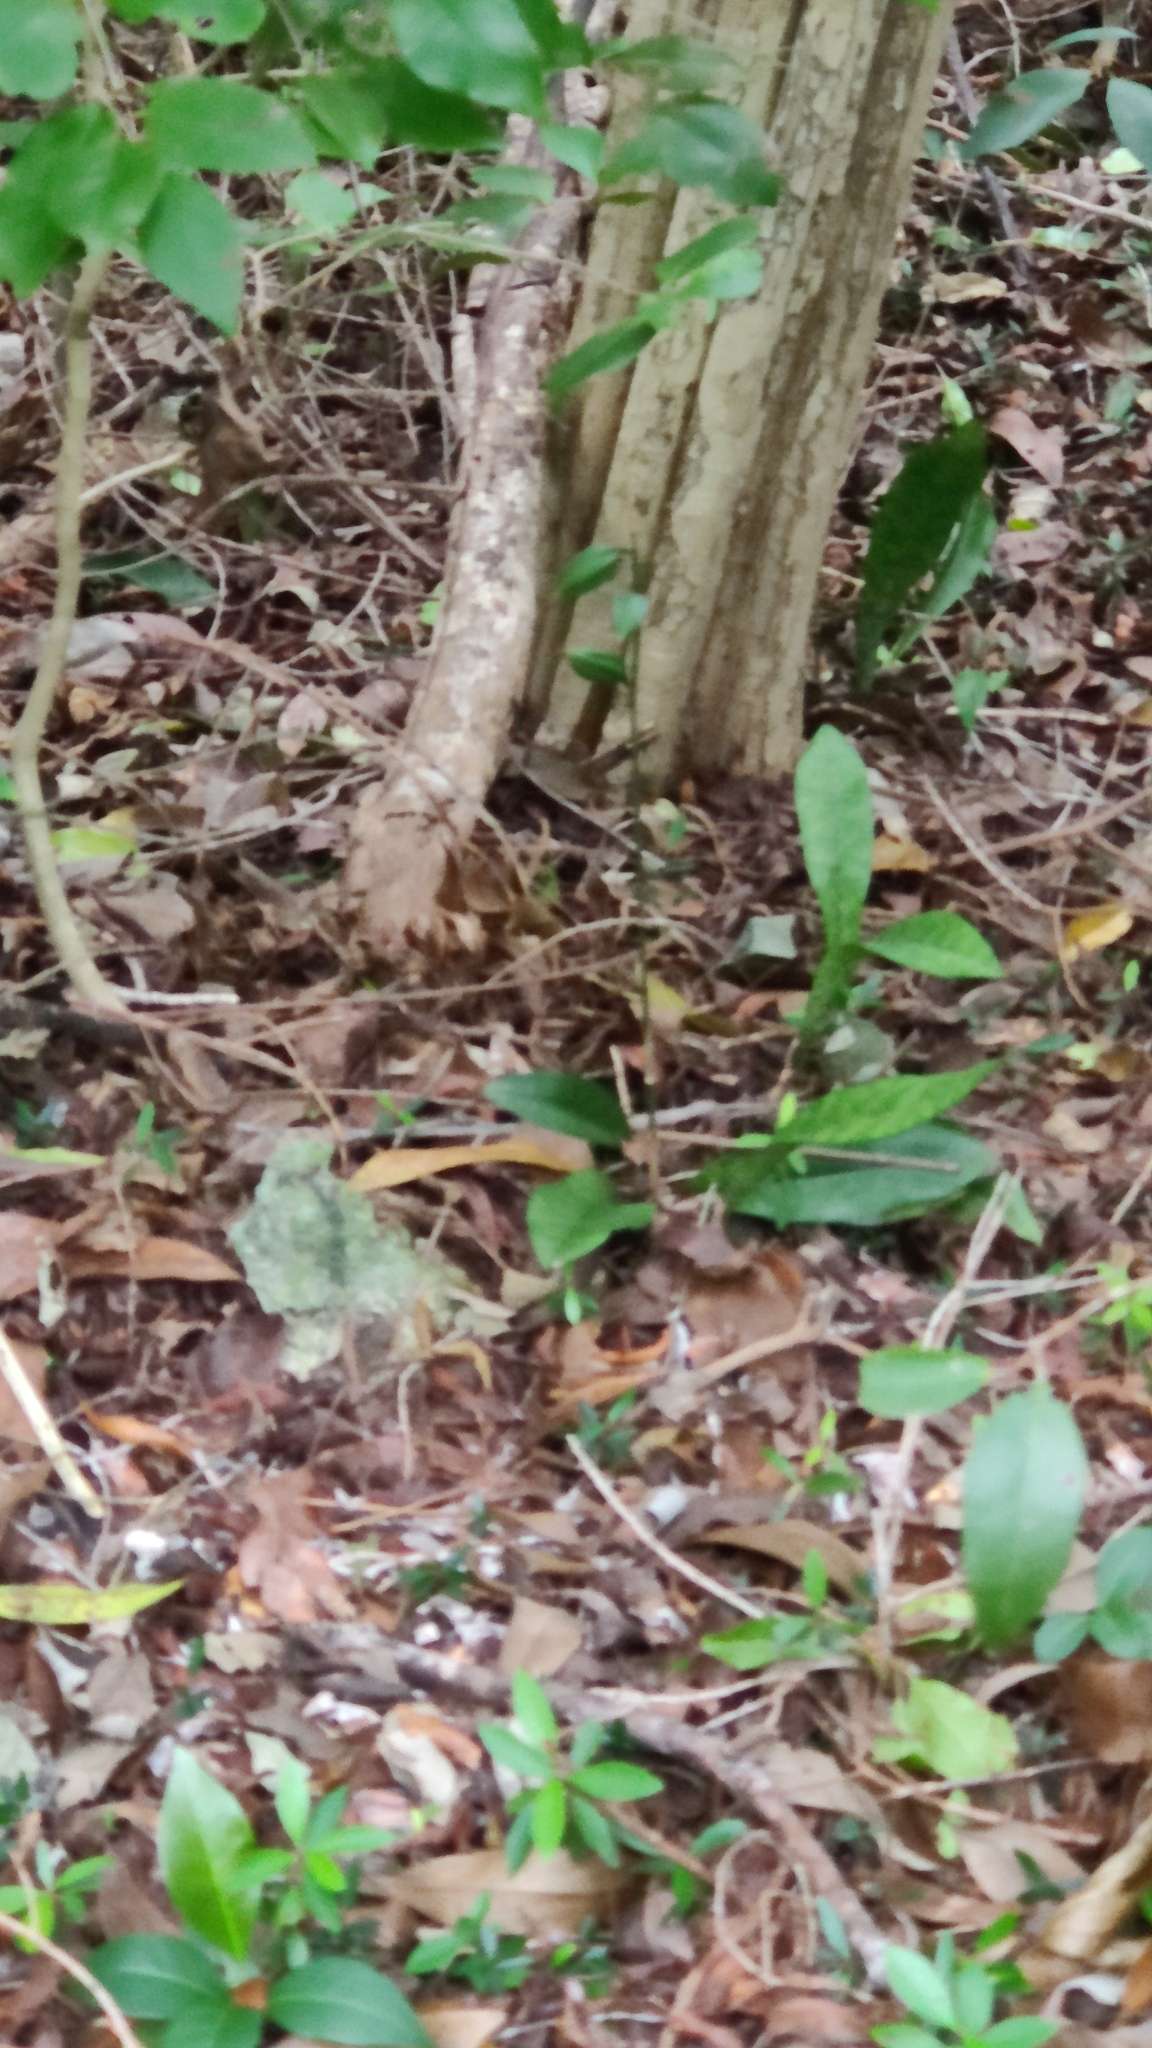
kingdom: Plantae
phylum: Tracheophyta
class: Liliopsida
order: Asparagales
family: Orchidaceae
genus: Eulophia
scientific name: Eulophia maculata
